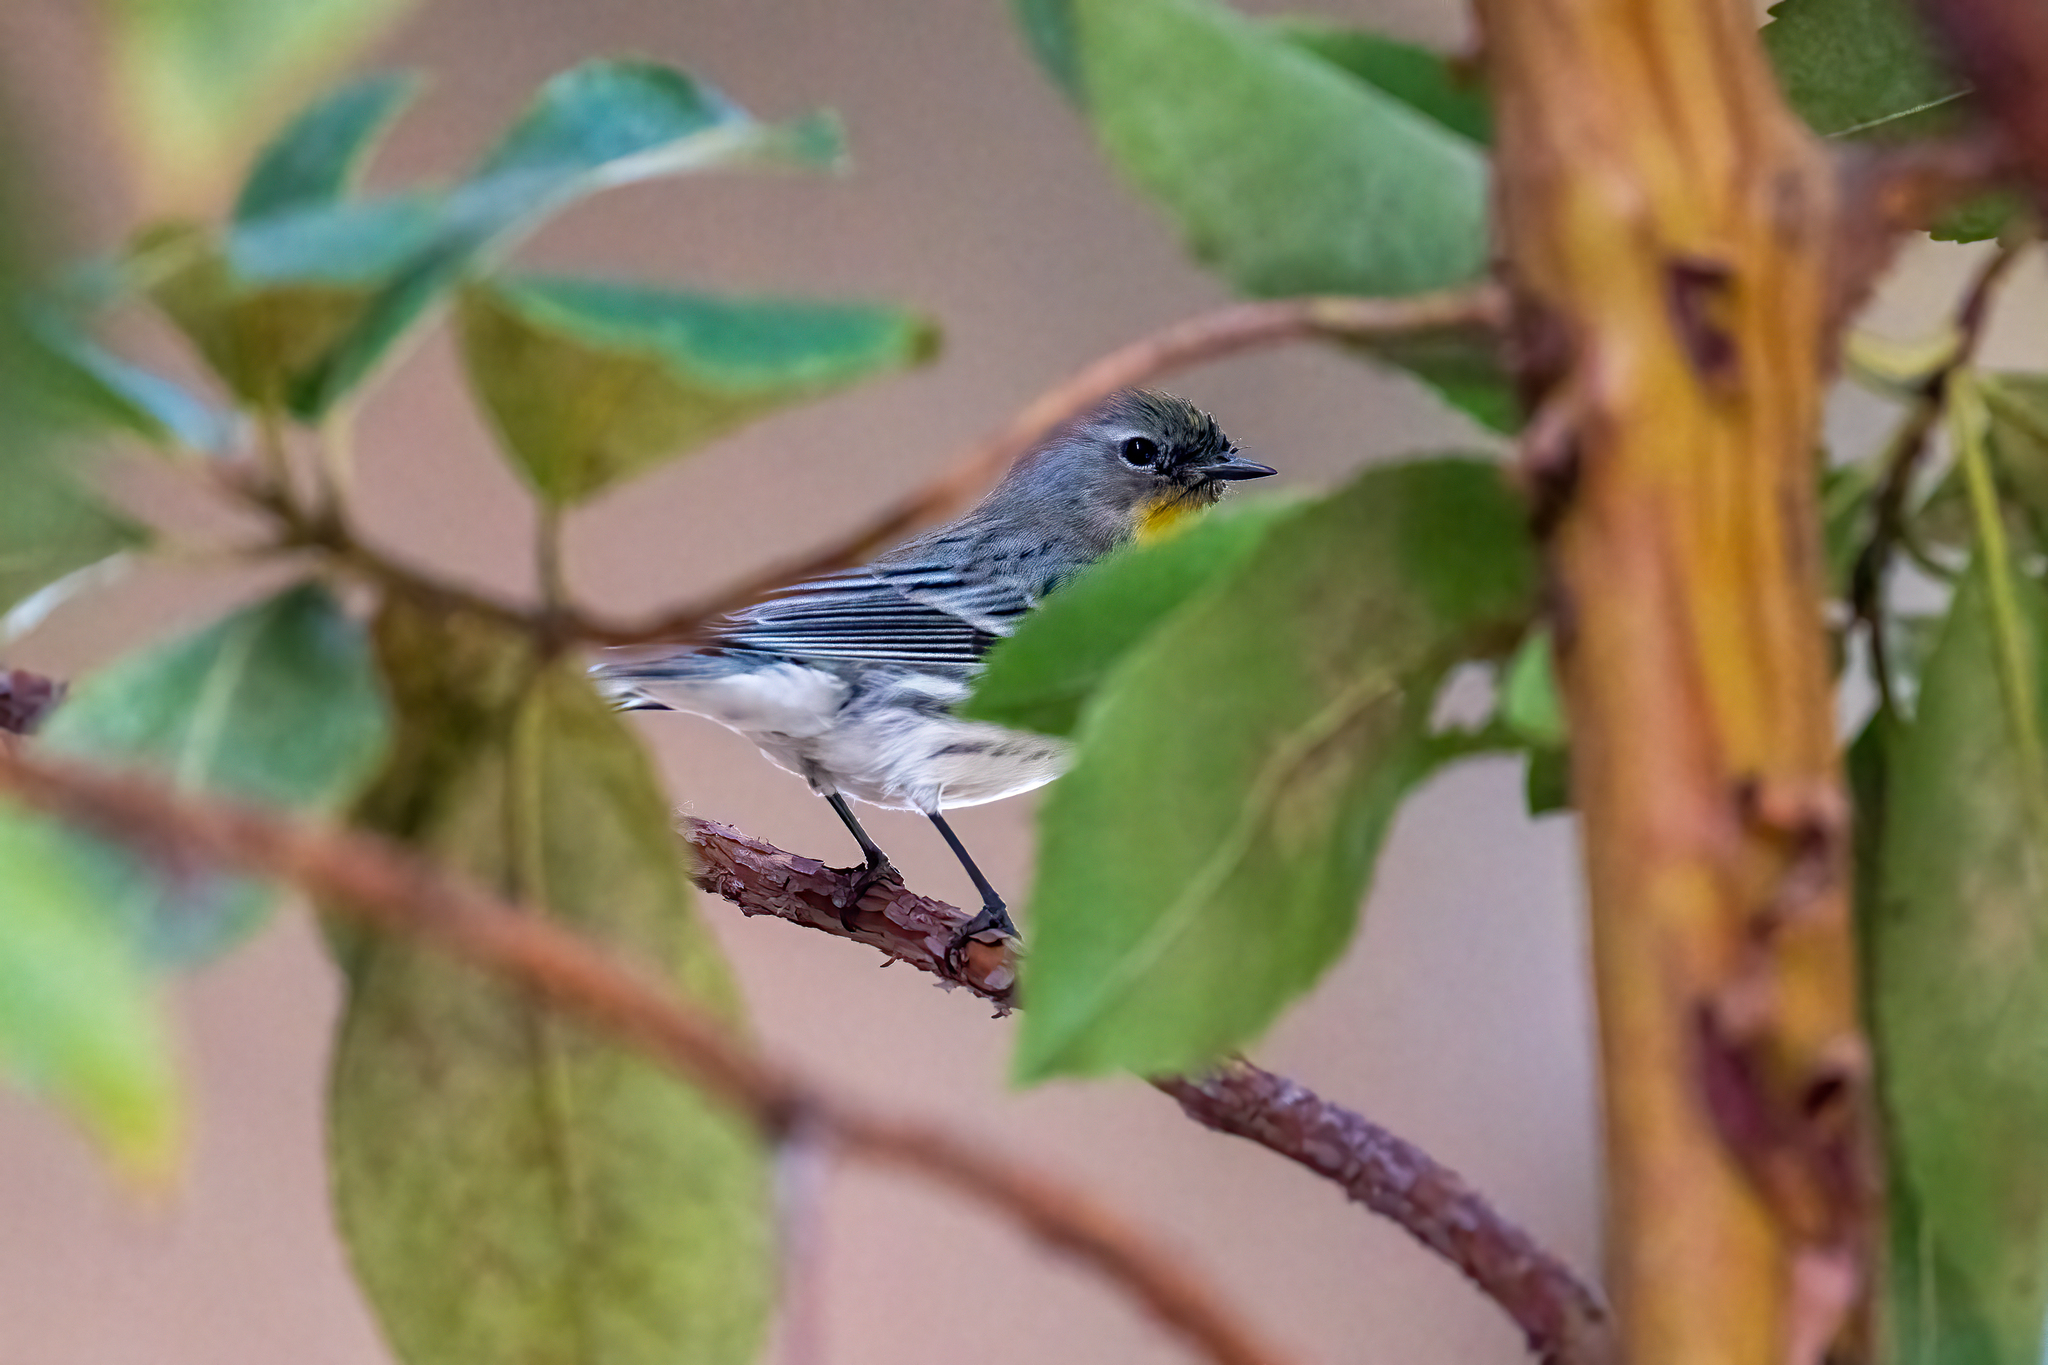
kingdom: Animalia
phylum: Chordata
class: Aves
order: Passeriformes
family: Parulidae
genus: Setophaga
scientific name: Setophaga coronata
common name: Myrtle warbler
